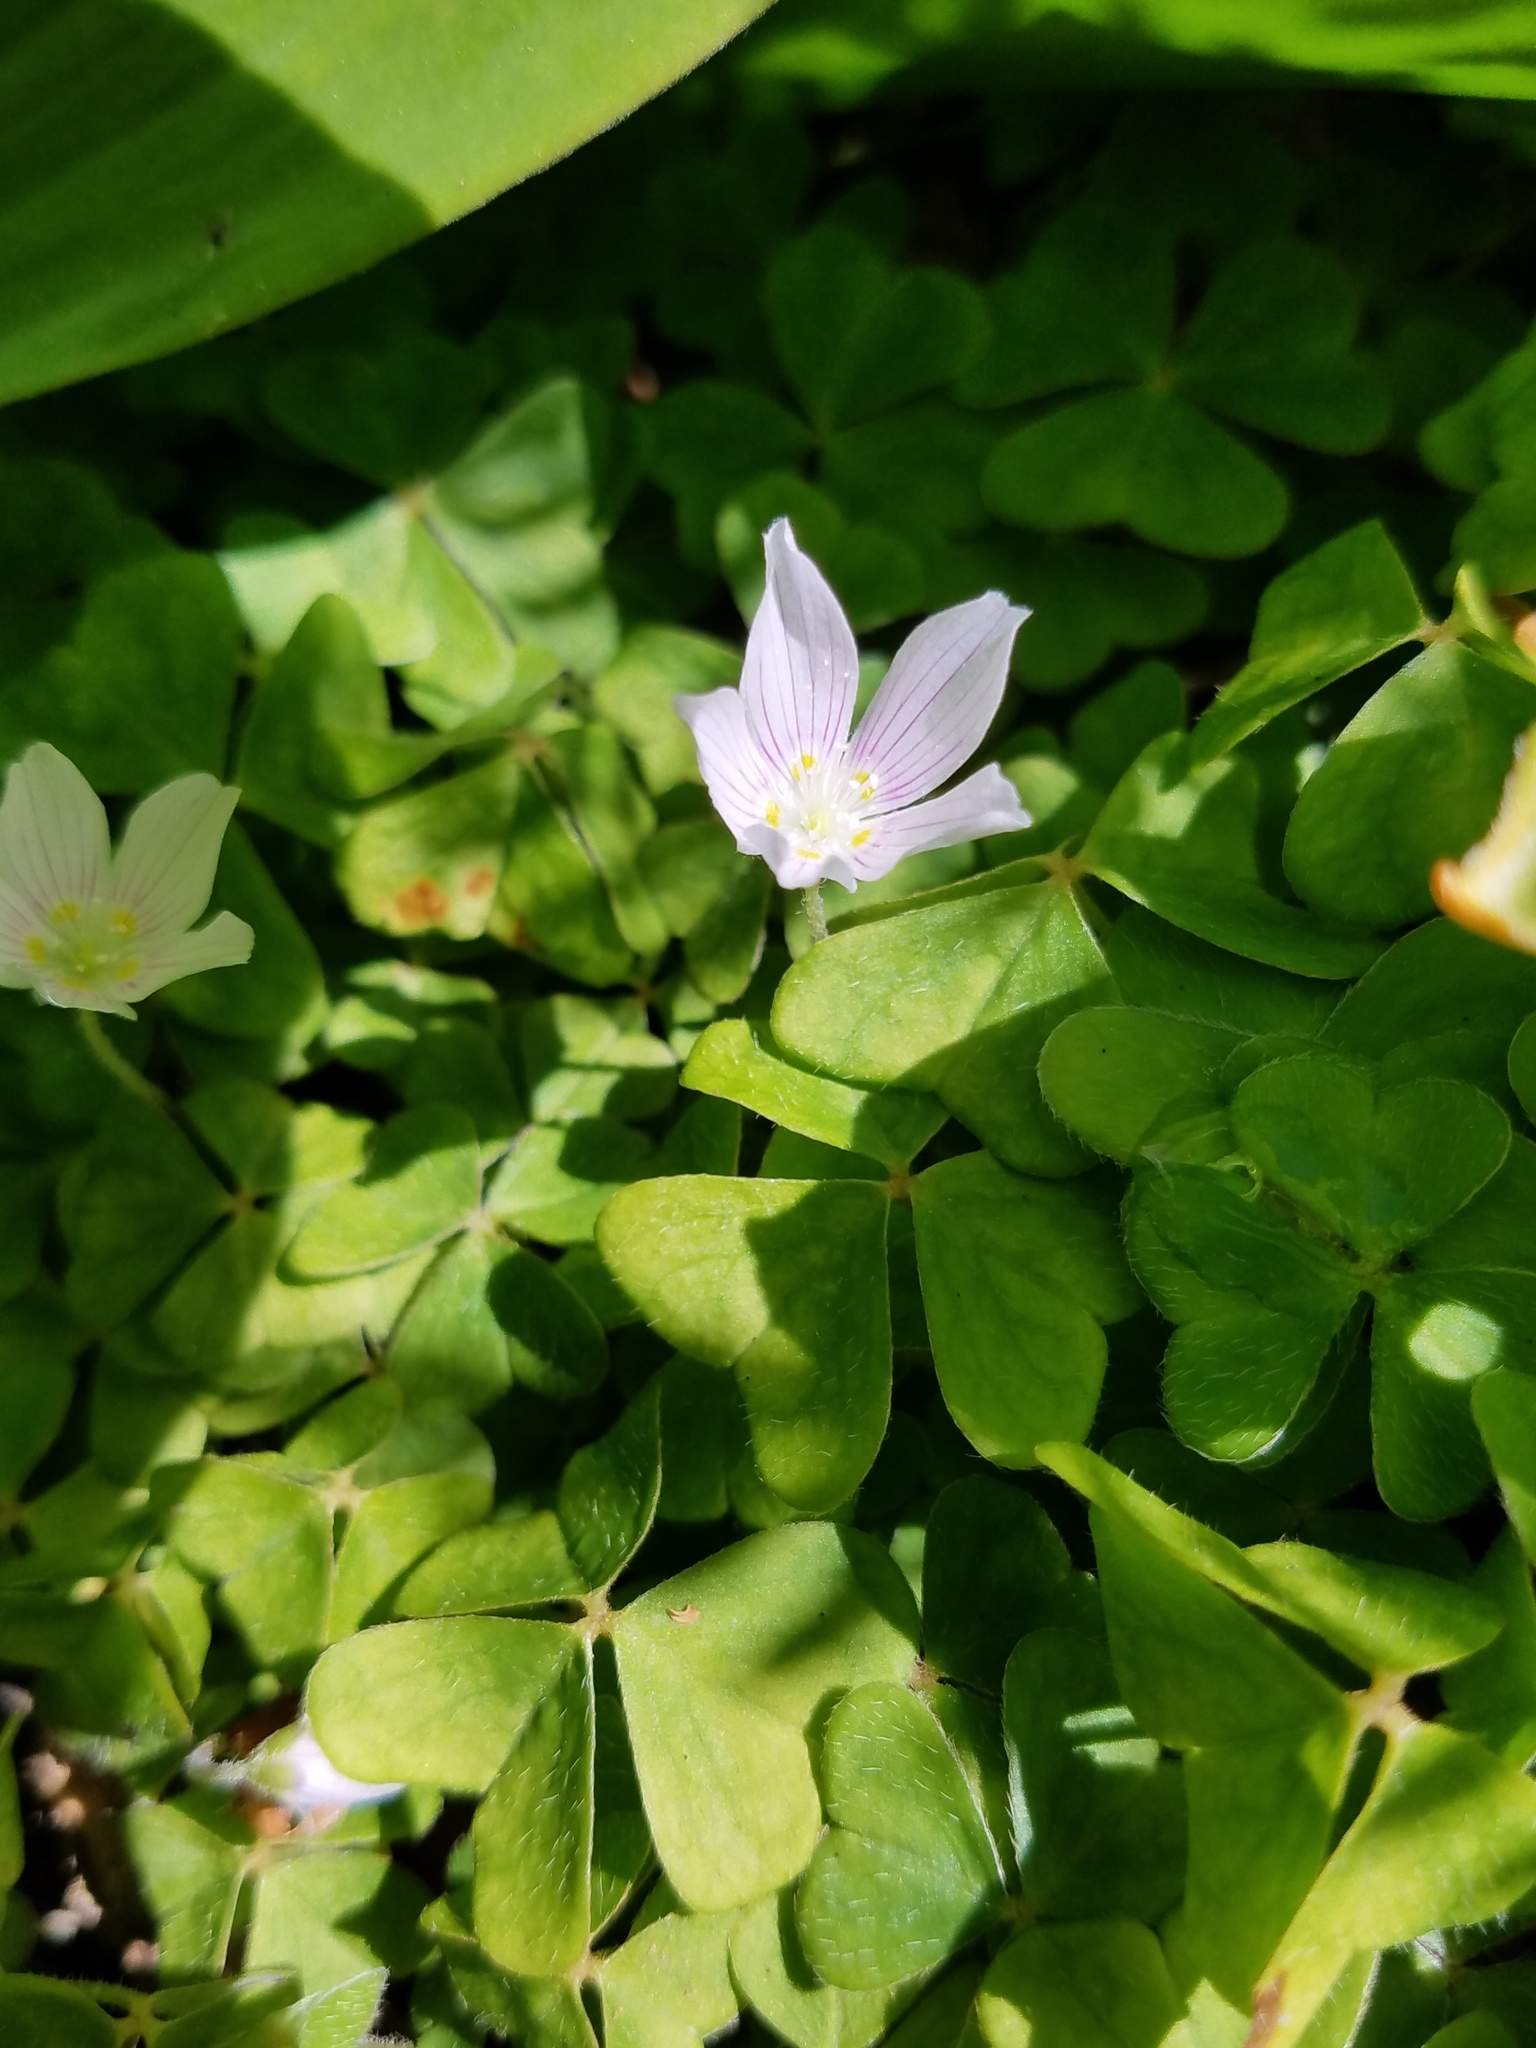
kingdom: Plantae
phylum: Tracheophyta
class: Magnoliopsida
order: Oxalidales
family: Oxalidaceae
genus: Oxalis
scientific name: Oxalis montana
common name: American wood-sorrel
